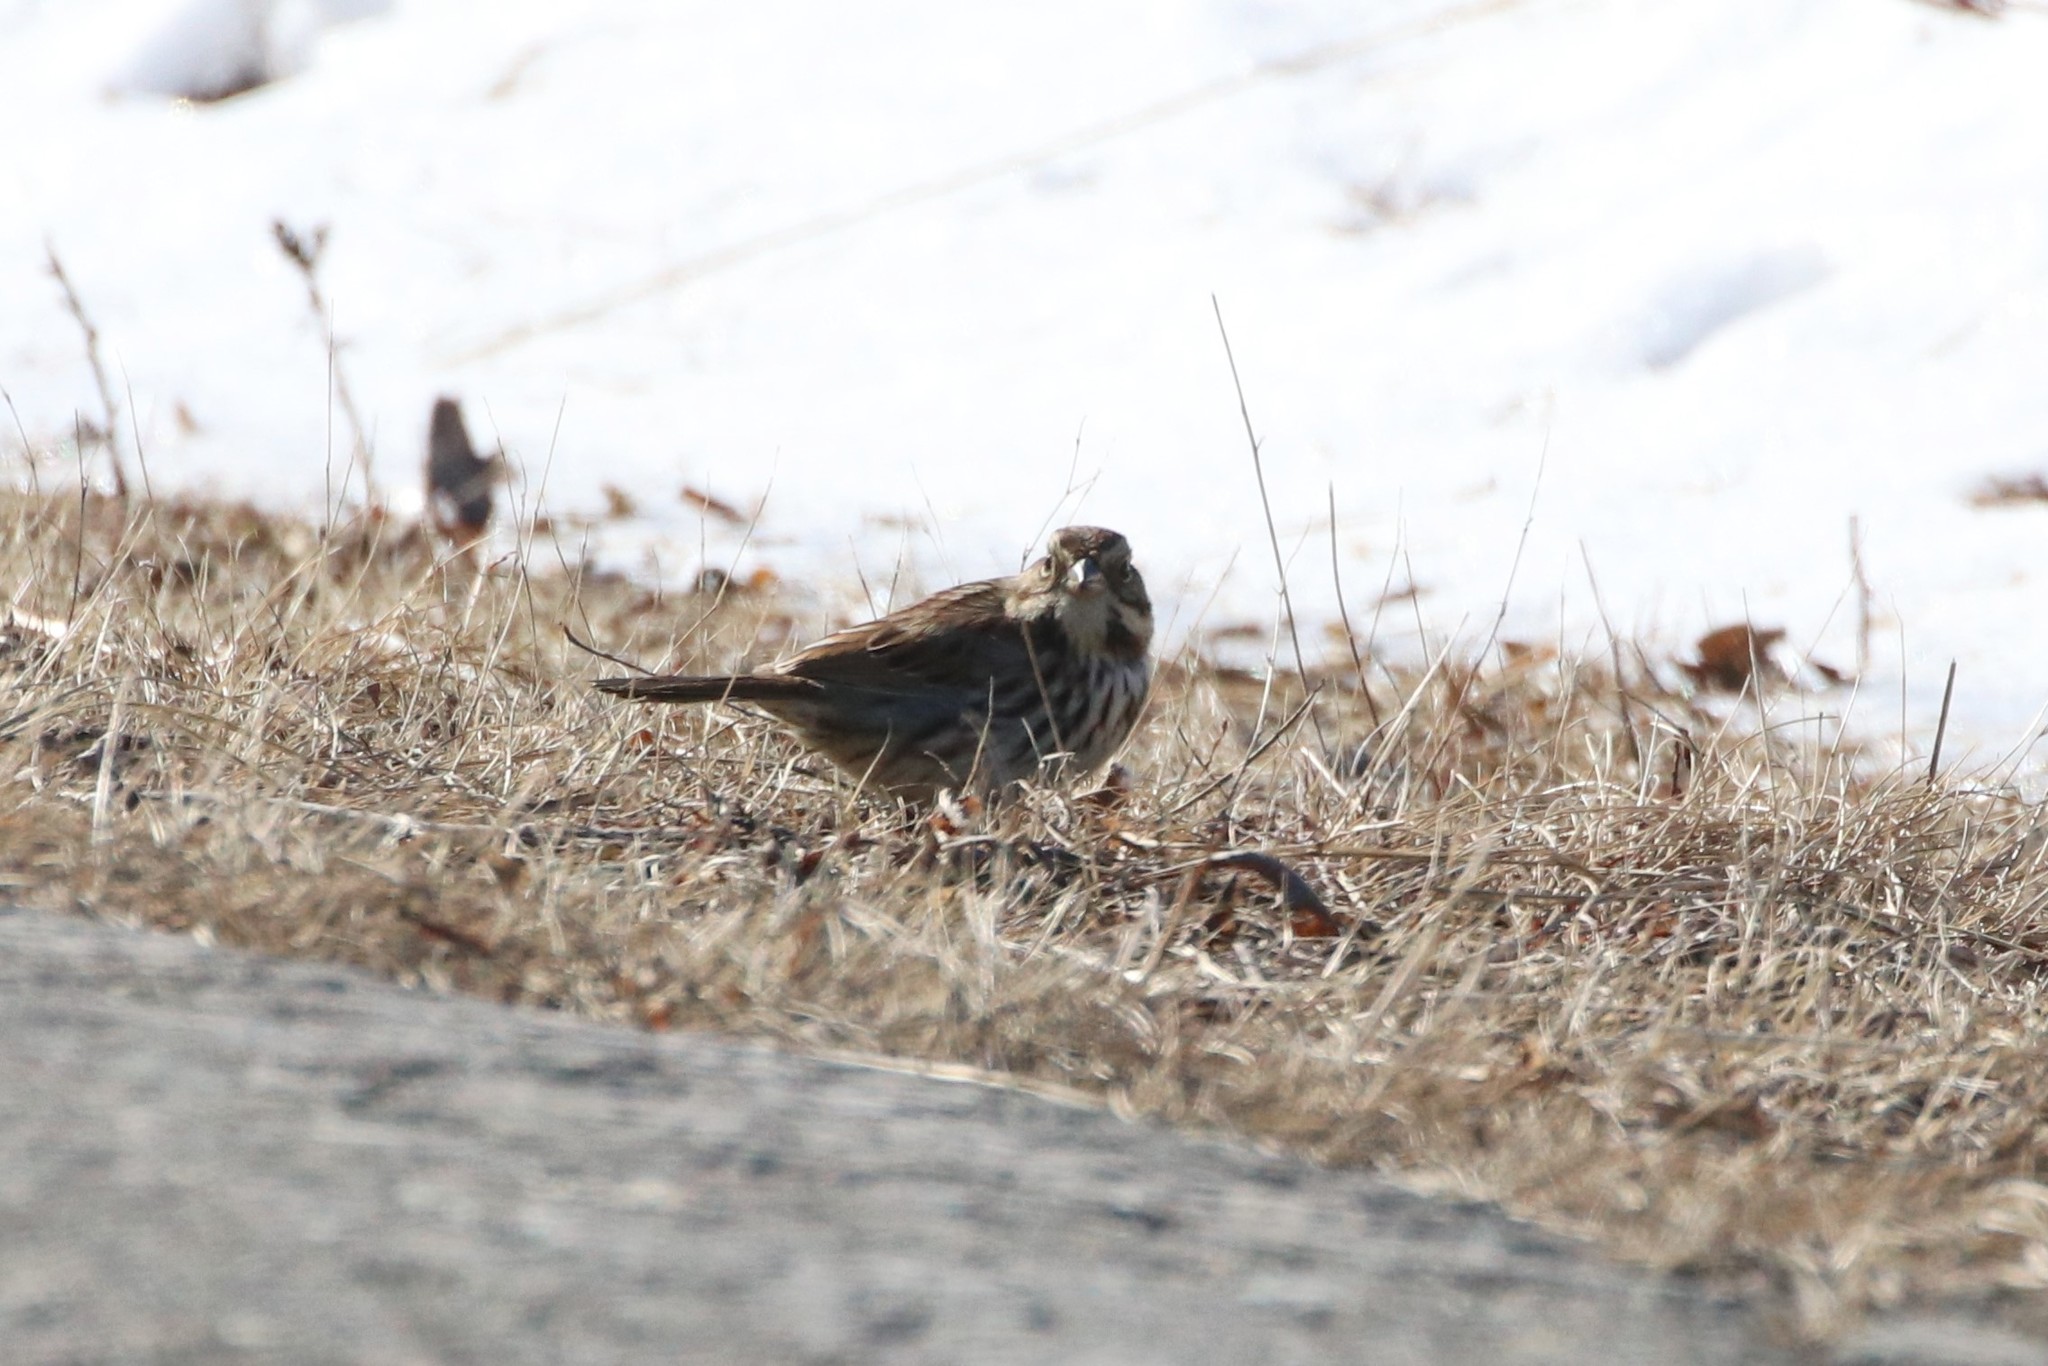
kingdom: Animalia
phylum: Chordata
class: Aves
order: Passeriformes
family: Passerellidae
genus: Melospiza
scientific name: Melospiza melodia
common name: Song sparrow
